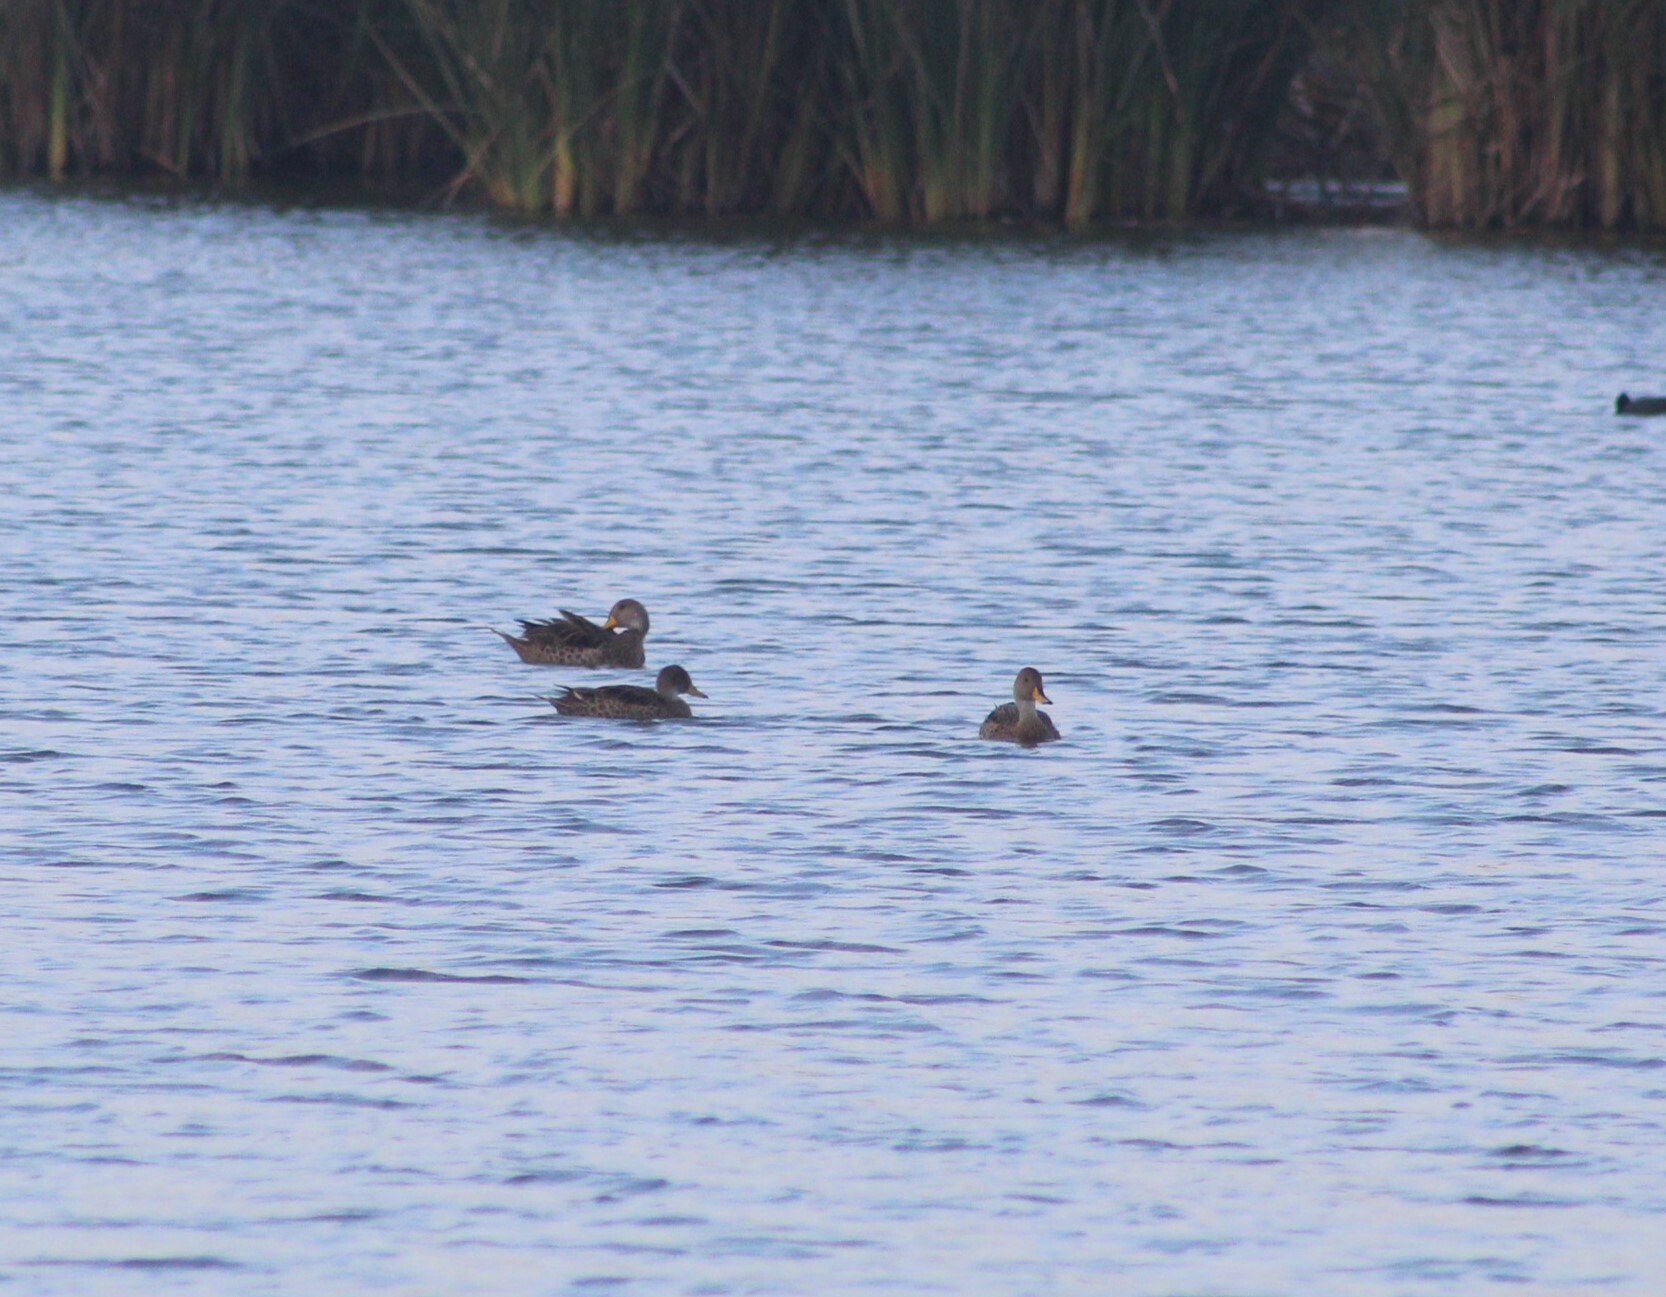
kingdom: Animalia
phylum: Chordata
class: Aves
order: Anseriformes
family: Anatidae
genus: Anas
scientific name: Anas georgica
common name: Yellow-billed pintail
